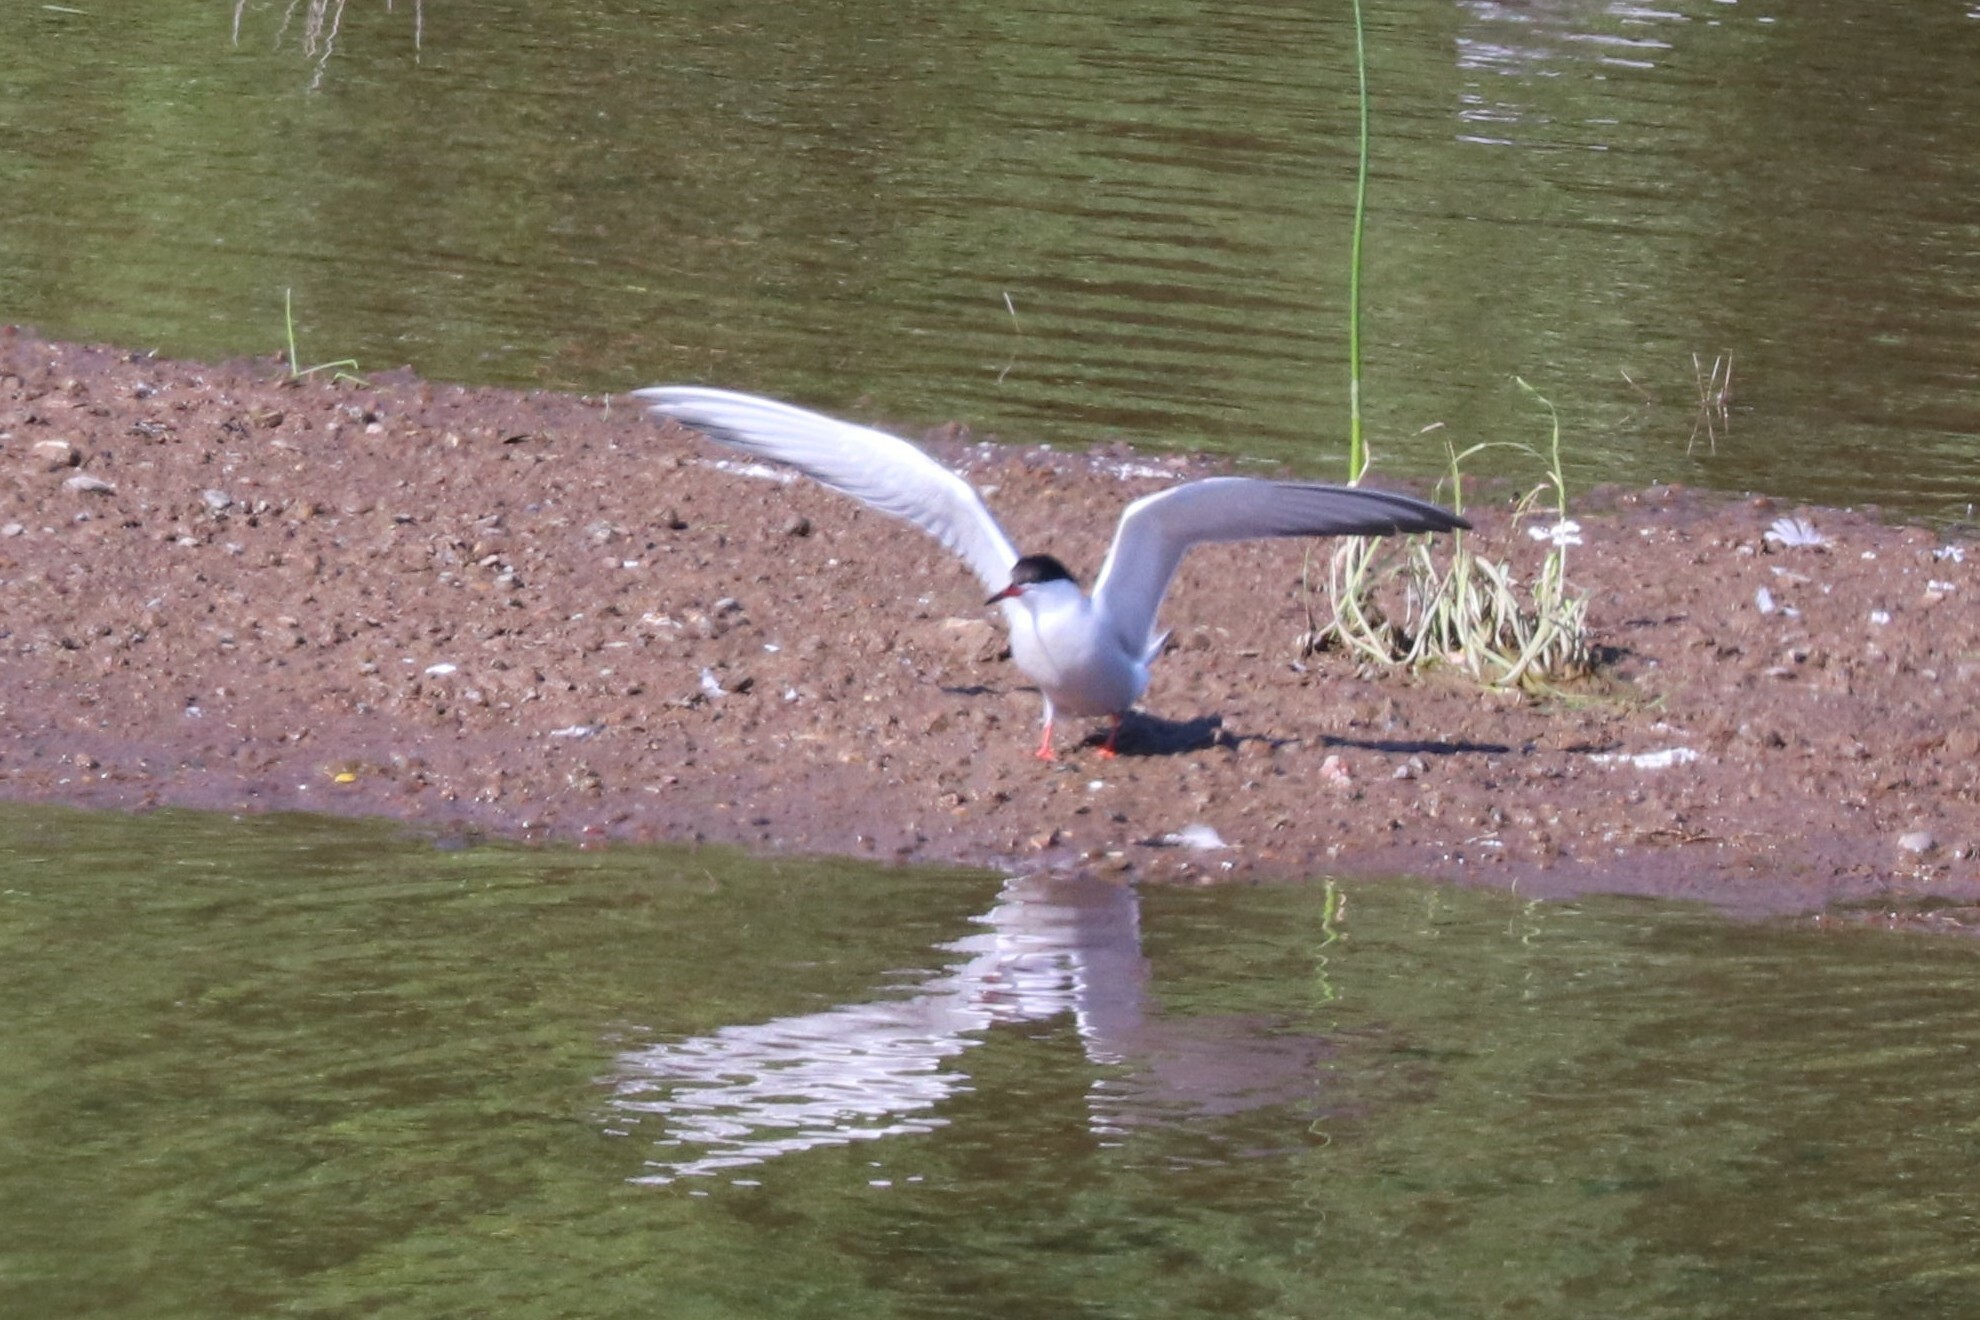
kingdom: Animalia
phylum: Chordata
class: Aves
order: Charadriiformes
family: Laridae
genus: Sterna
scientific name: Sterna hirundo
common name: Common tern
